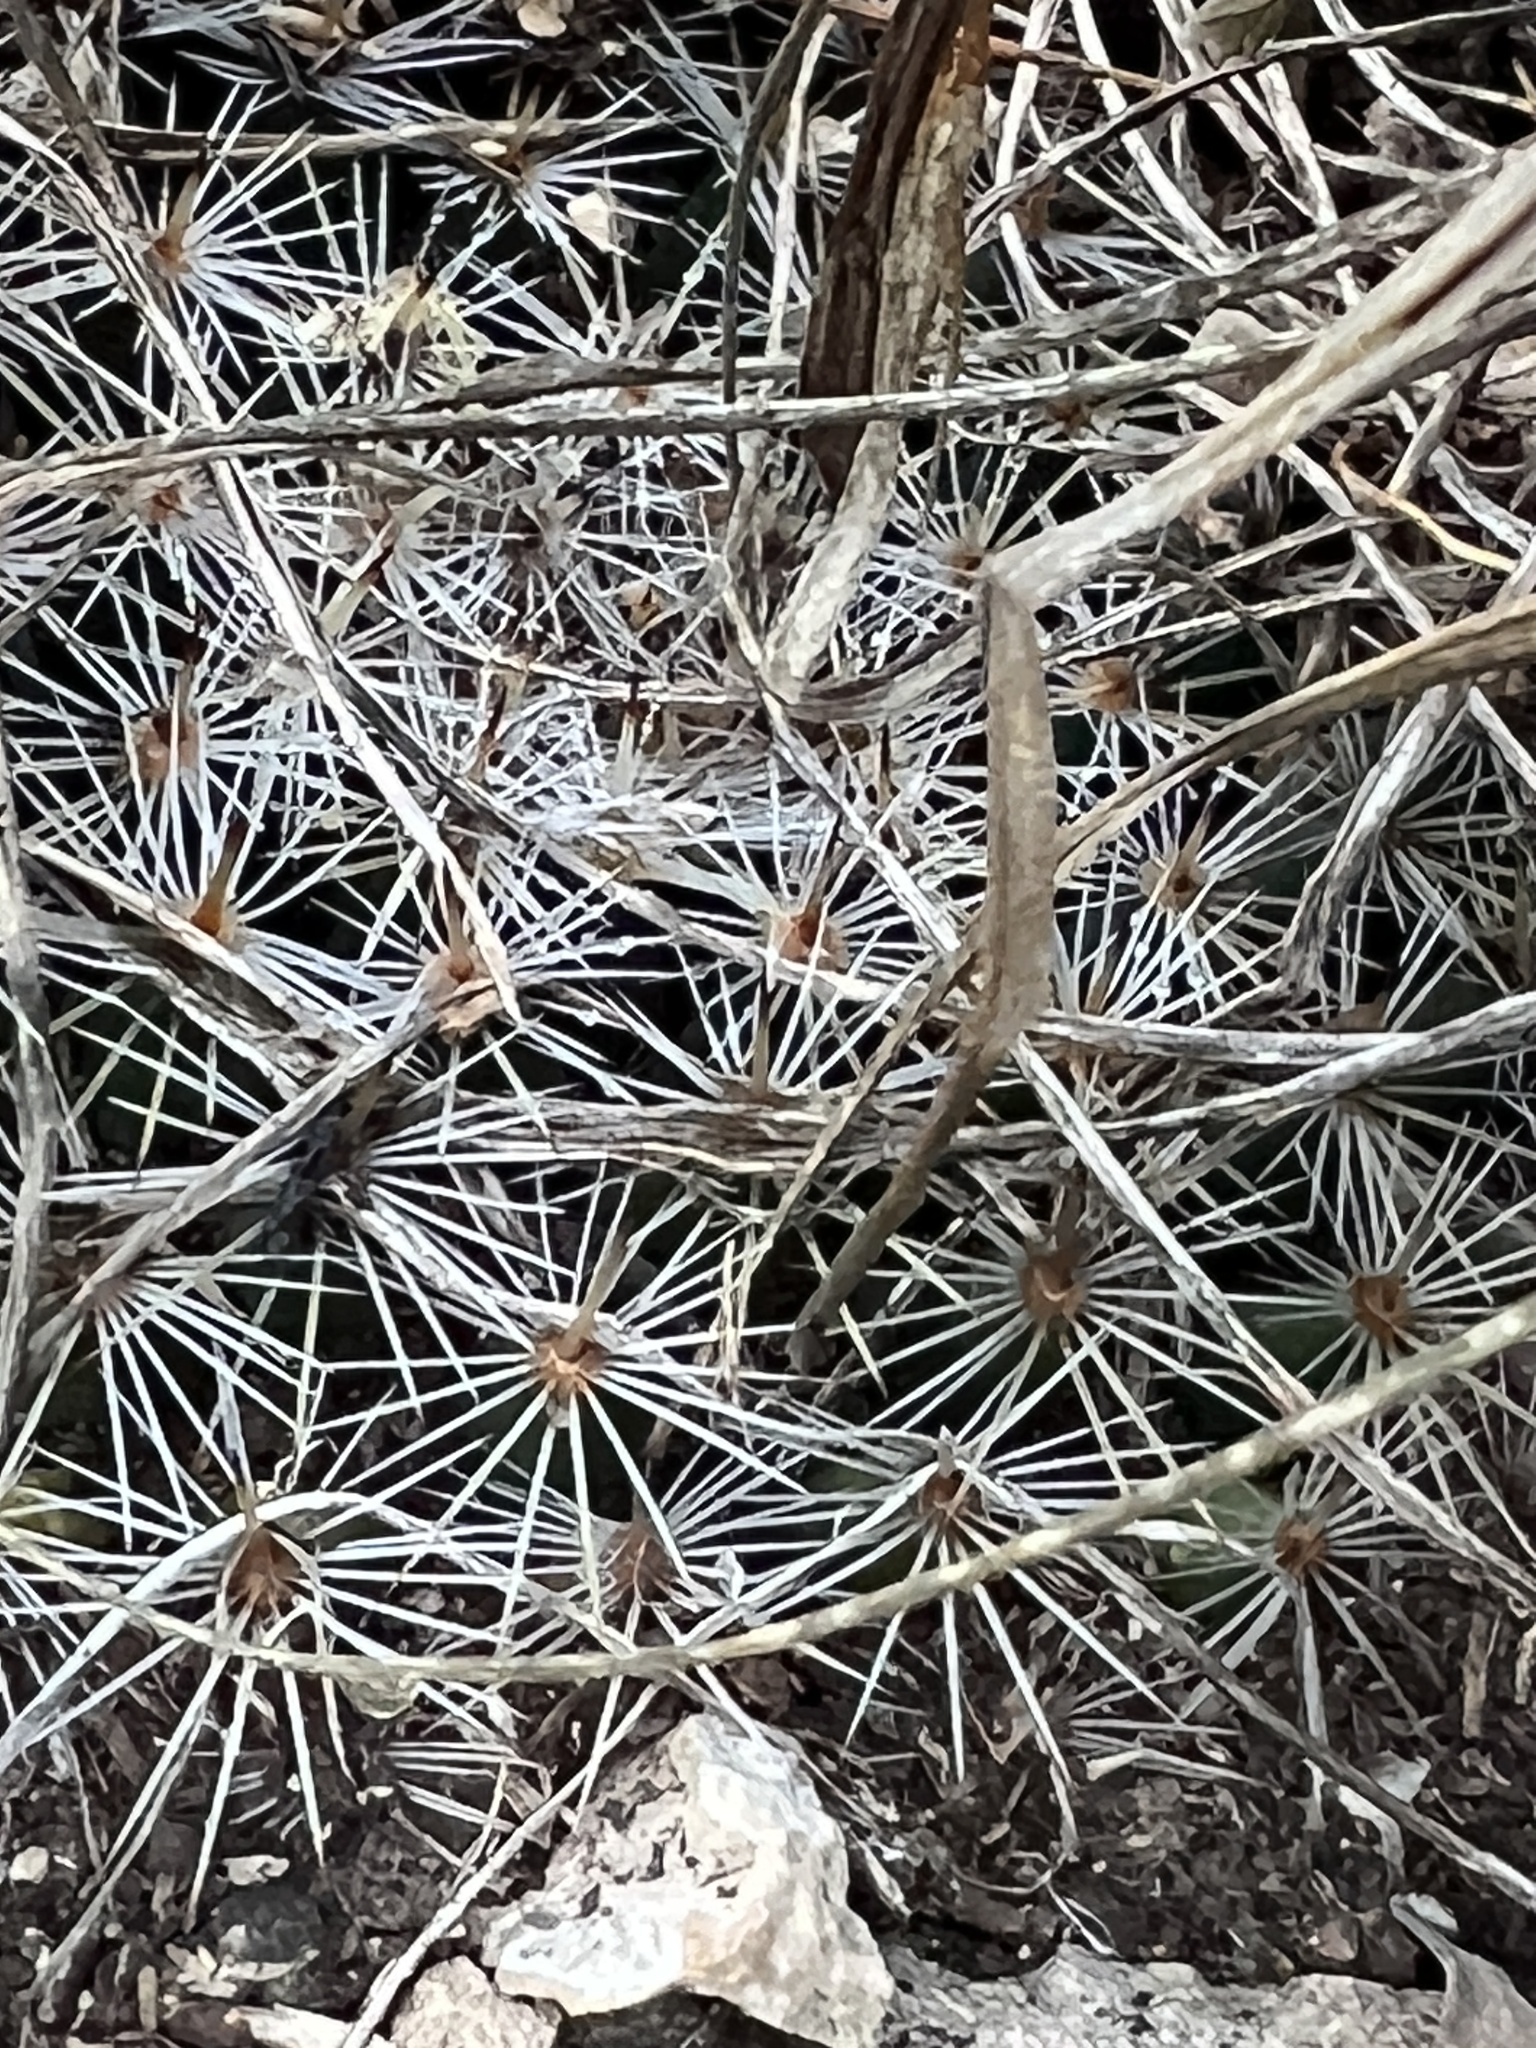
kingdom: Plantae
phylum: Tracheophyta
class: Magnoliopsida
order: Caryophyllales
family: Cactaceae
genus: Mammillaria
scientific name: Mammillaria heyderi
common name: Little nipple cactus
